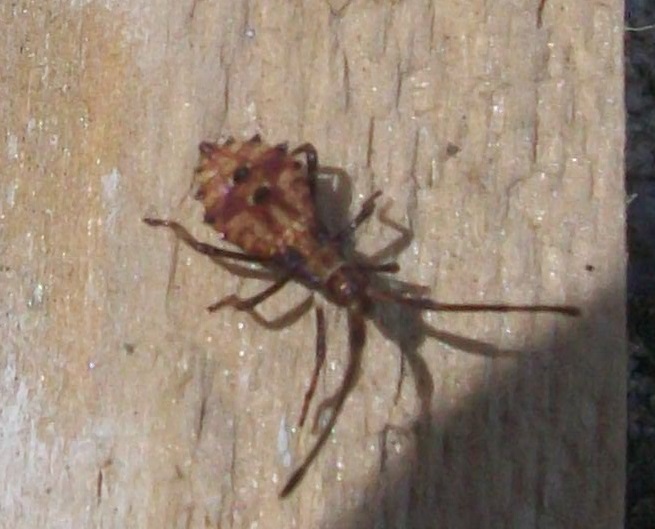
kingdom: Animalia
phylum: Arthropoda
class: Insecta
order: Hemiptera
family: Coreidae
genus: Coreus
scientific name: Coreus marginatus
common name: Dock bug
